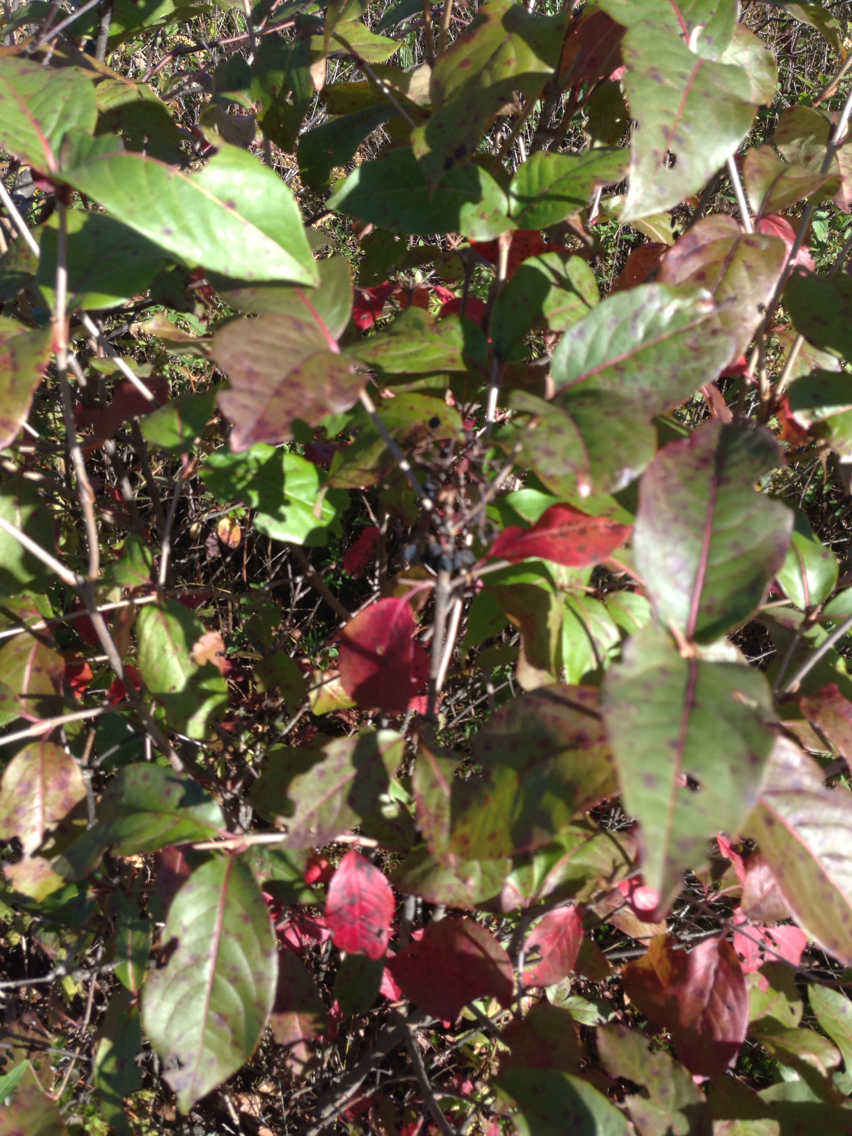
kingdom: Plantae
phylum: Tracheophyta
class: Magnoliopsida
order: Dipsacales
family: Viburnaceae
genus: Viburnum
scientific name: Viburnum cassinoides
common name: Swamp haw
